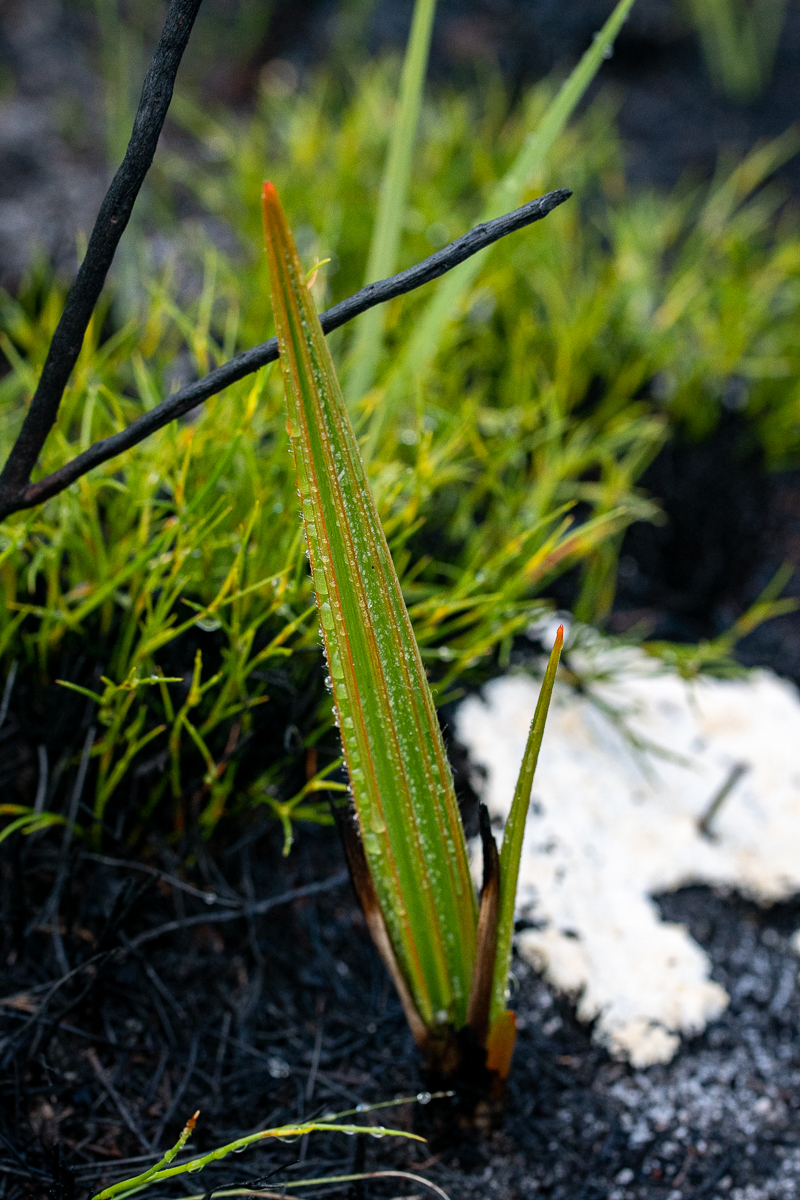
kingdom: Plantae
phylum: Tracheophyta
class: Liliopsida
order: Commelinales
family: Haemodoraceae
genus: Wachendorfia
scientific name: Wachendorfia paniculata
